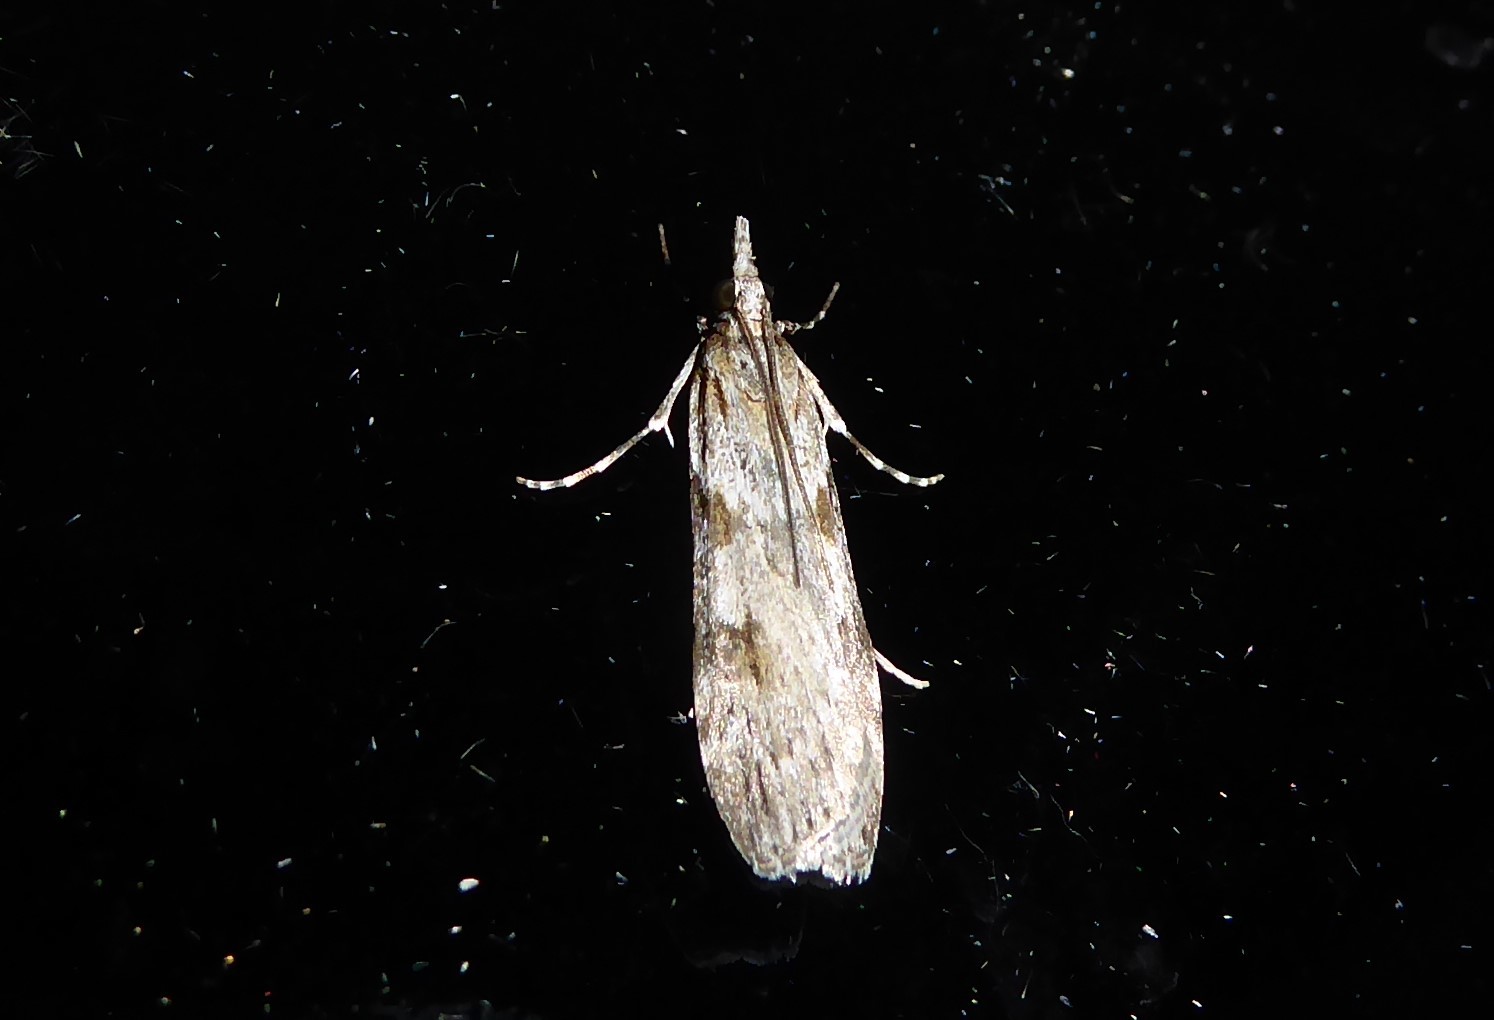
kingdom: Animalia
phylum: Arthropoda
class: Insecta
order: Lepidoptera
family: Crambidae
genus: Scoparia
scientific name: Scoparia halopis
